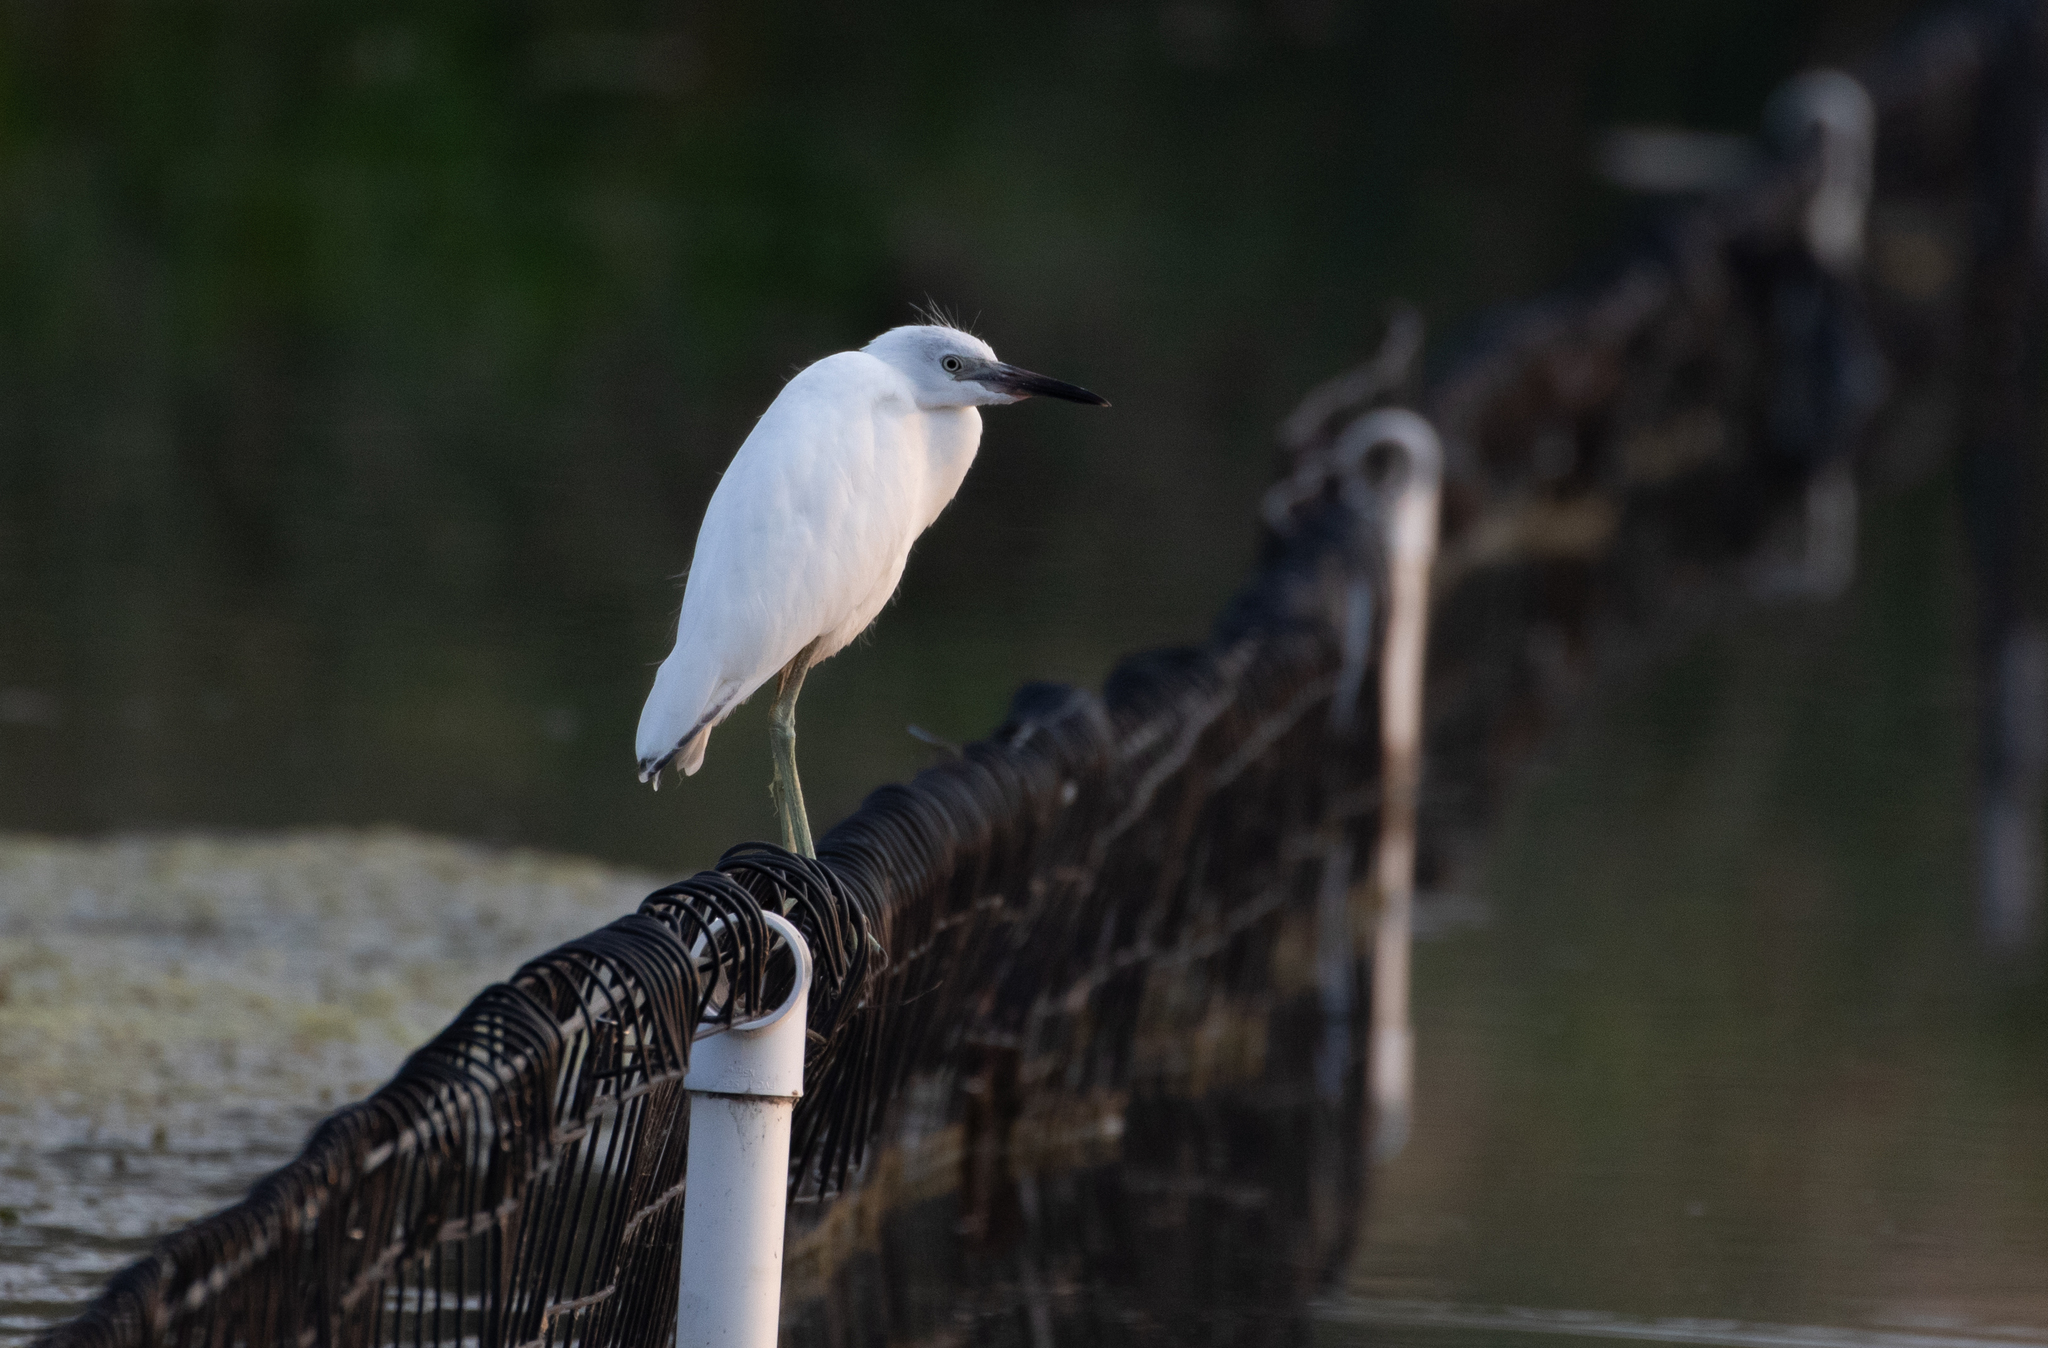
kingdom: Animalia
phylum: Chordata
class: Aves
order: Pelecaniformes
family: Ardeidae
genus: Egretta
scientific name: Egretta caerulea
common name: Little blue heron
